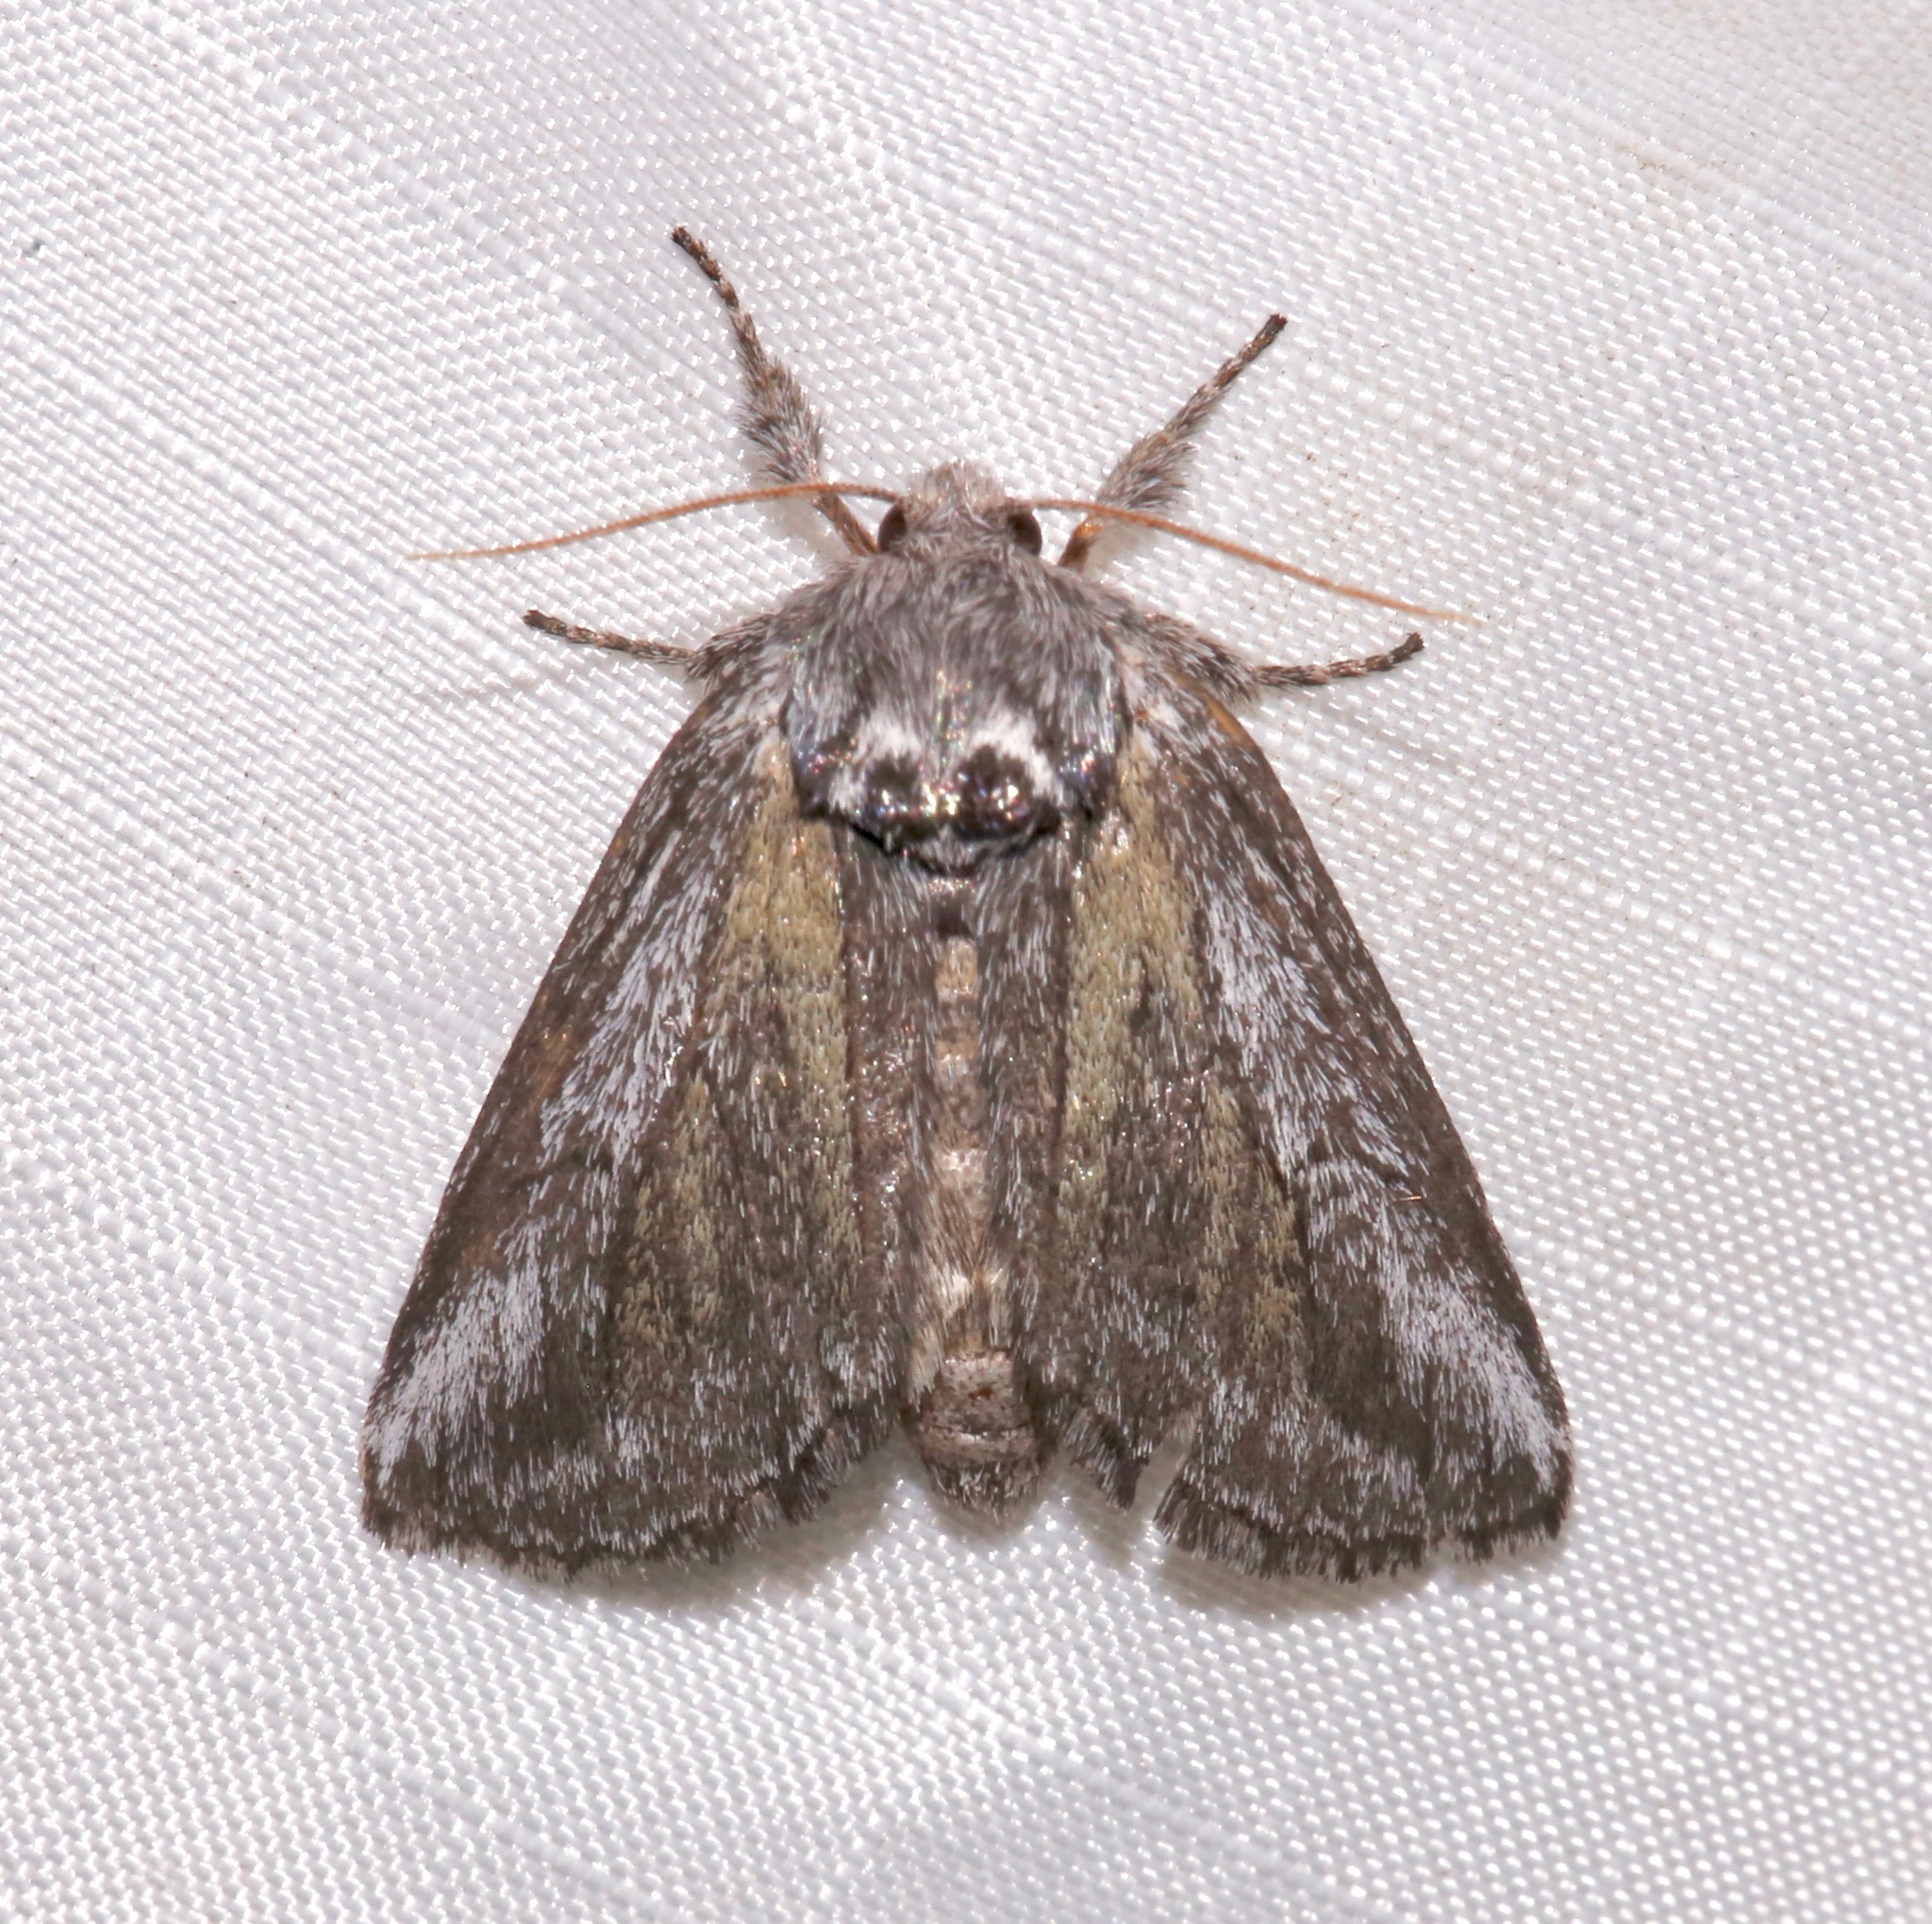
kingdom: Animalia
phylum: Arthropoda
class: Insecta
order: Lepidoptera
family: Notodontidae
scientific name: Notodontidae
